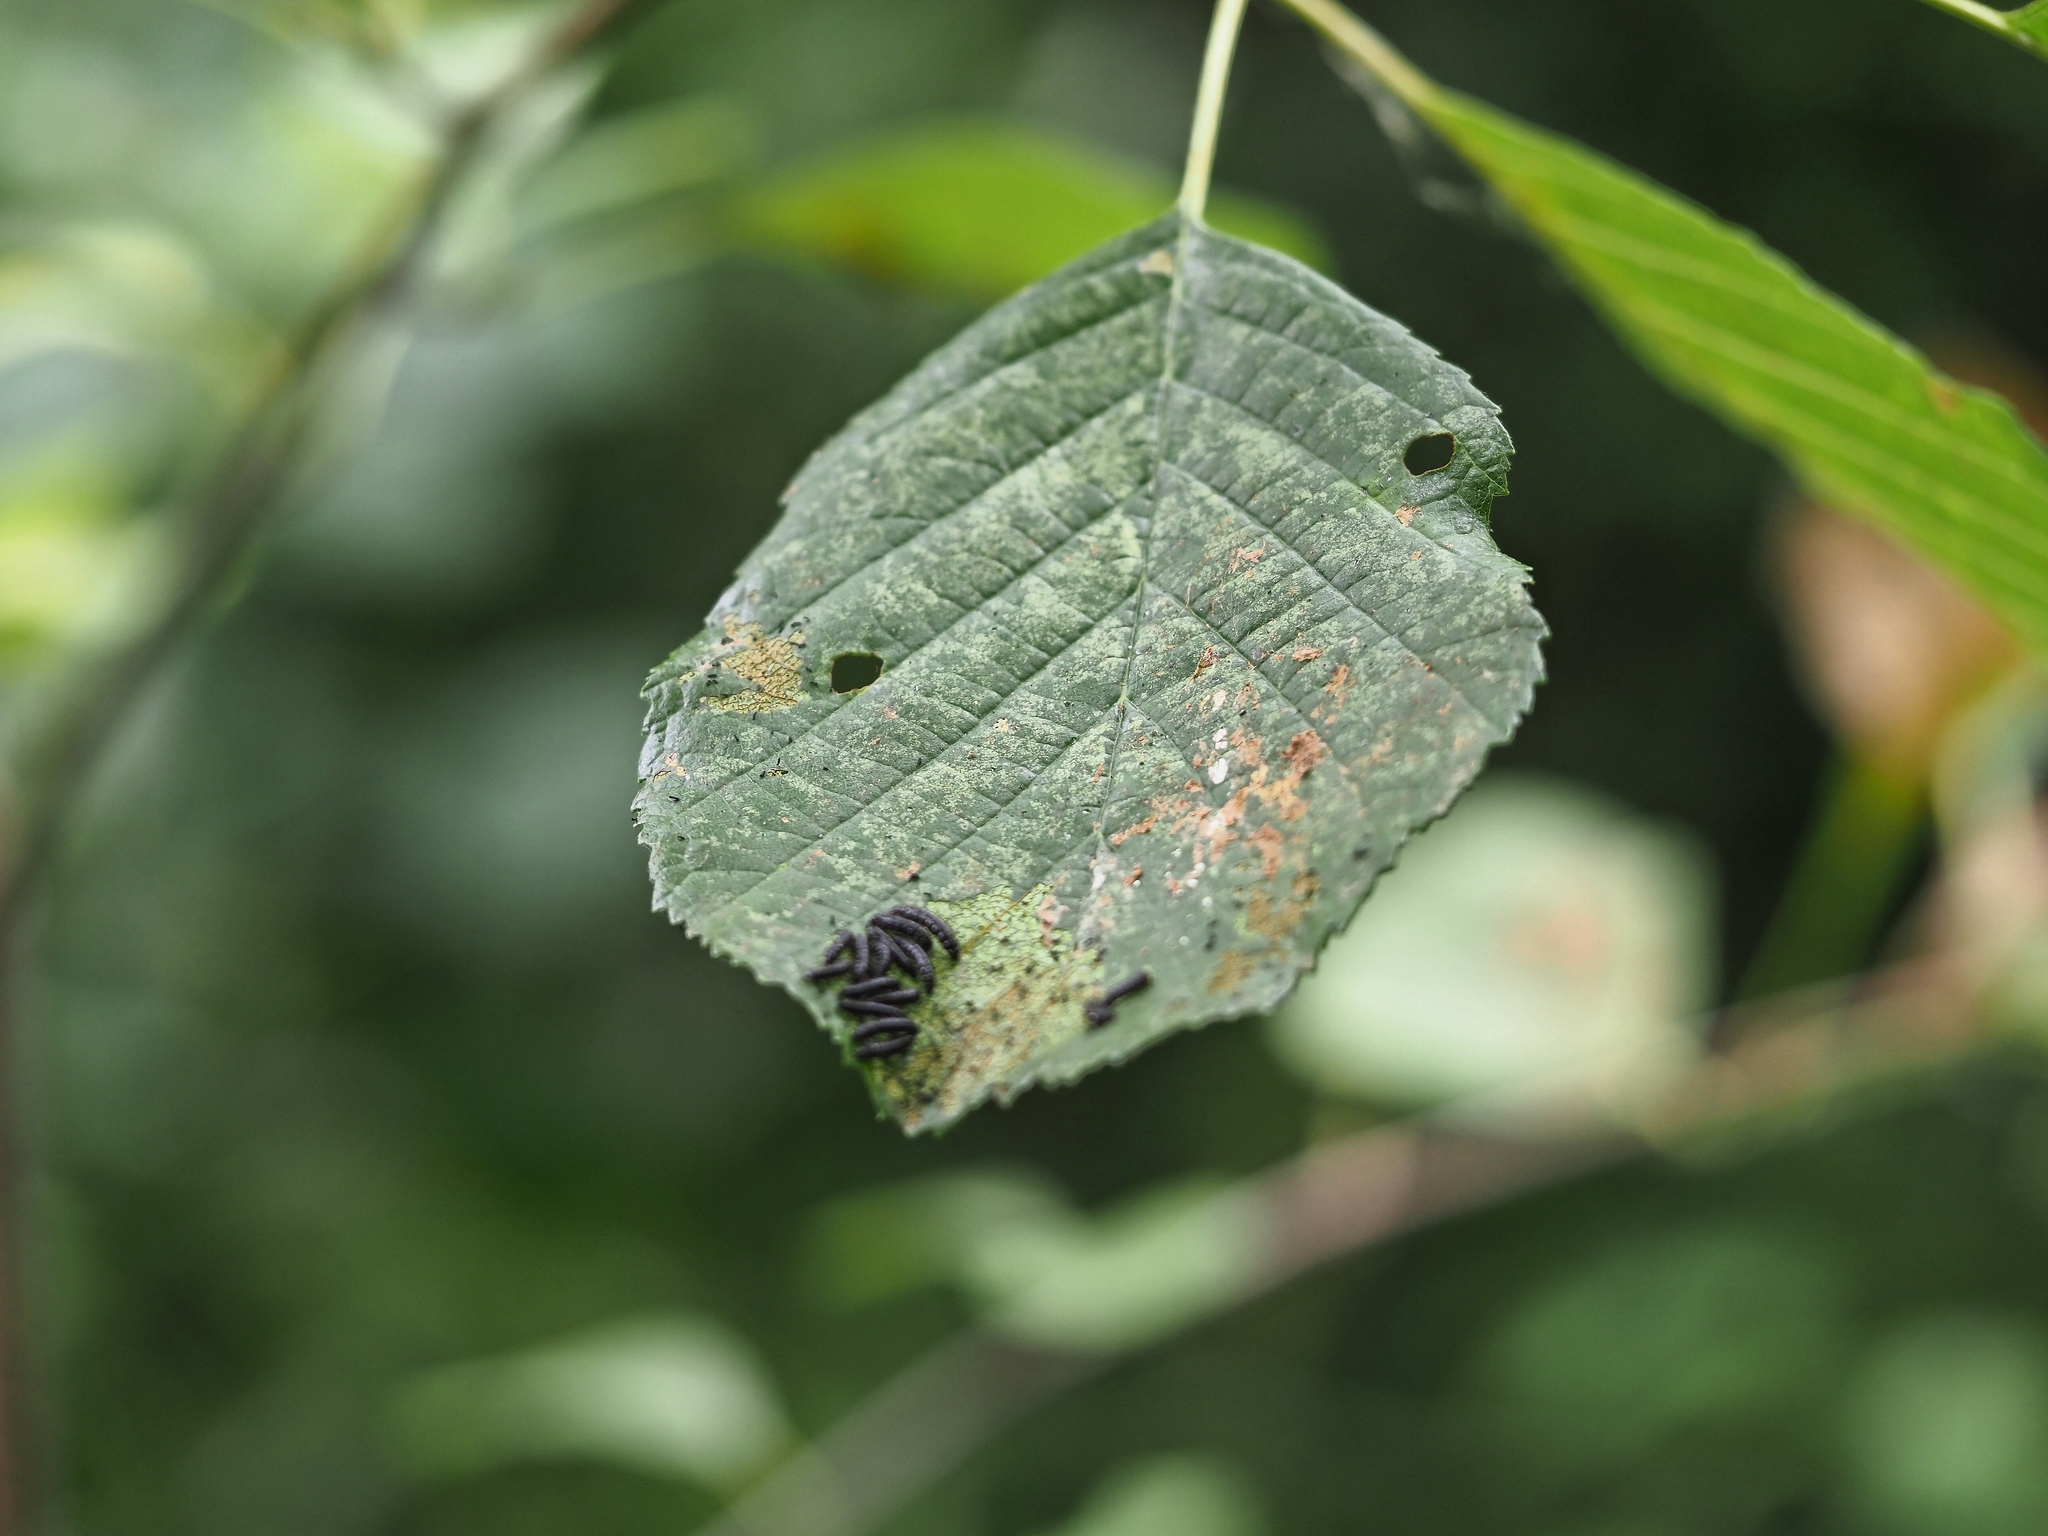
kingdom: Animalia
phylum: Arthropoda
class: Insecta
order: Coleoptera
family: Chrysomelidae
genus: Agelastica
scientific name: Agelastica alni
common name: Alder leaf beetle
